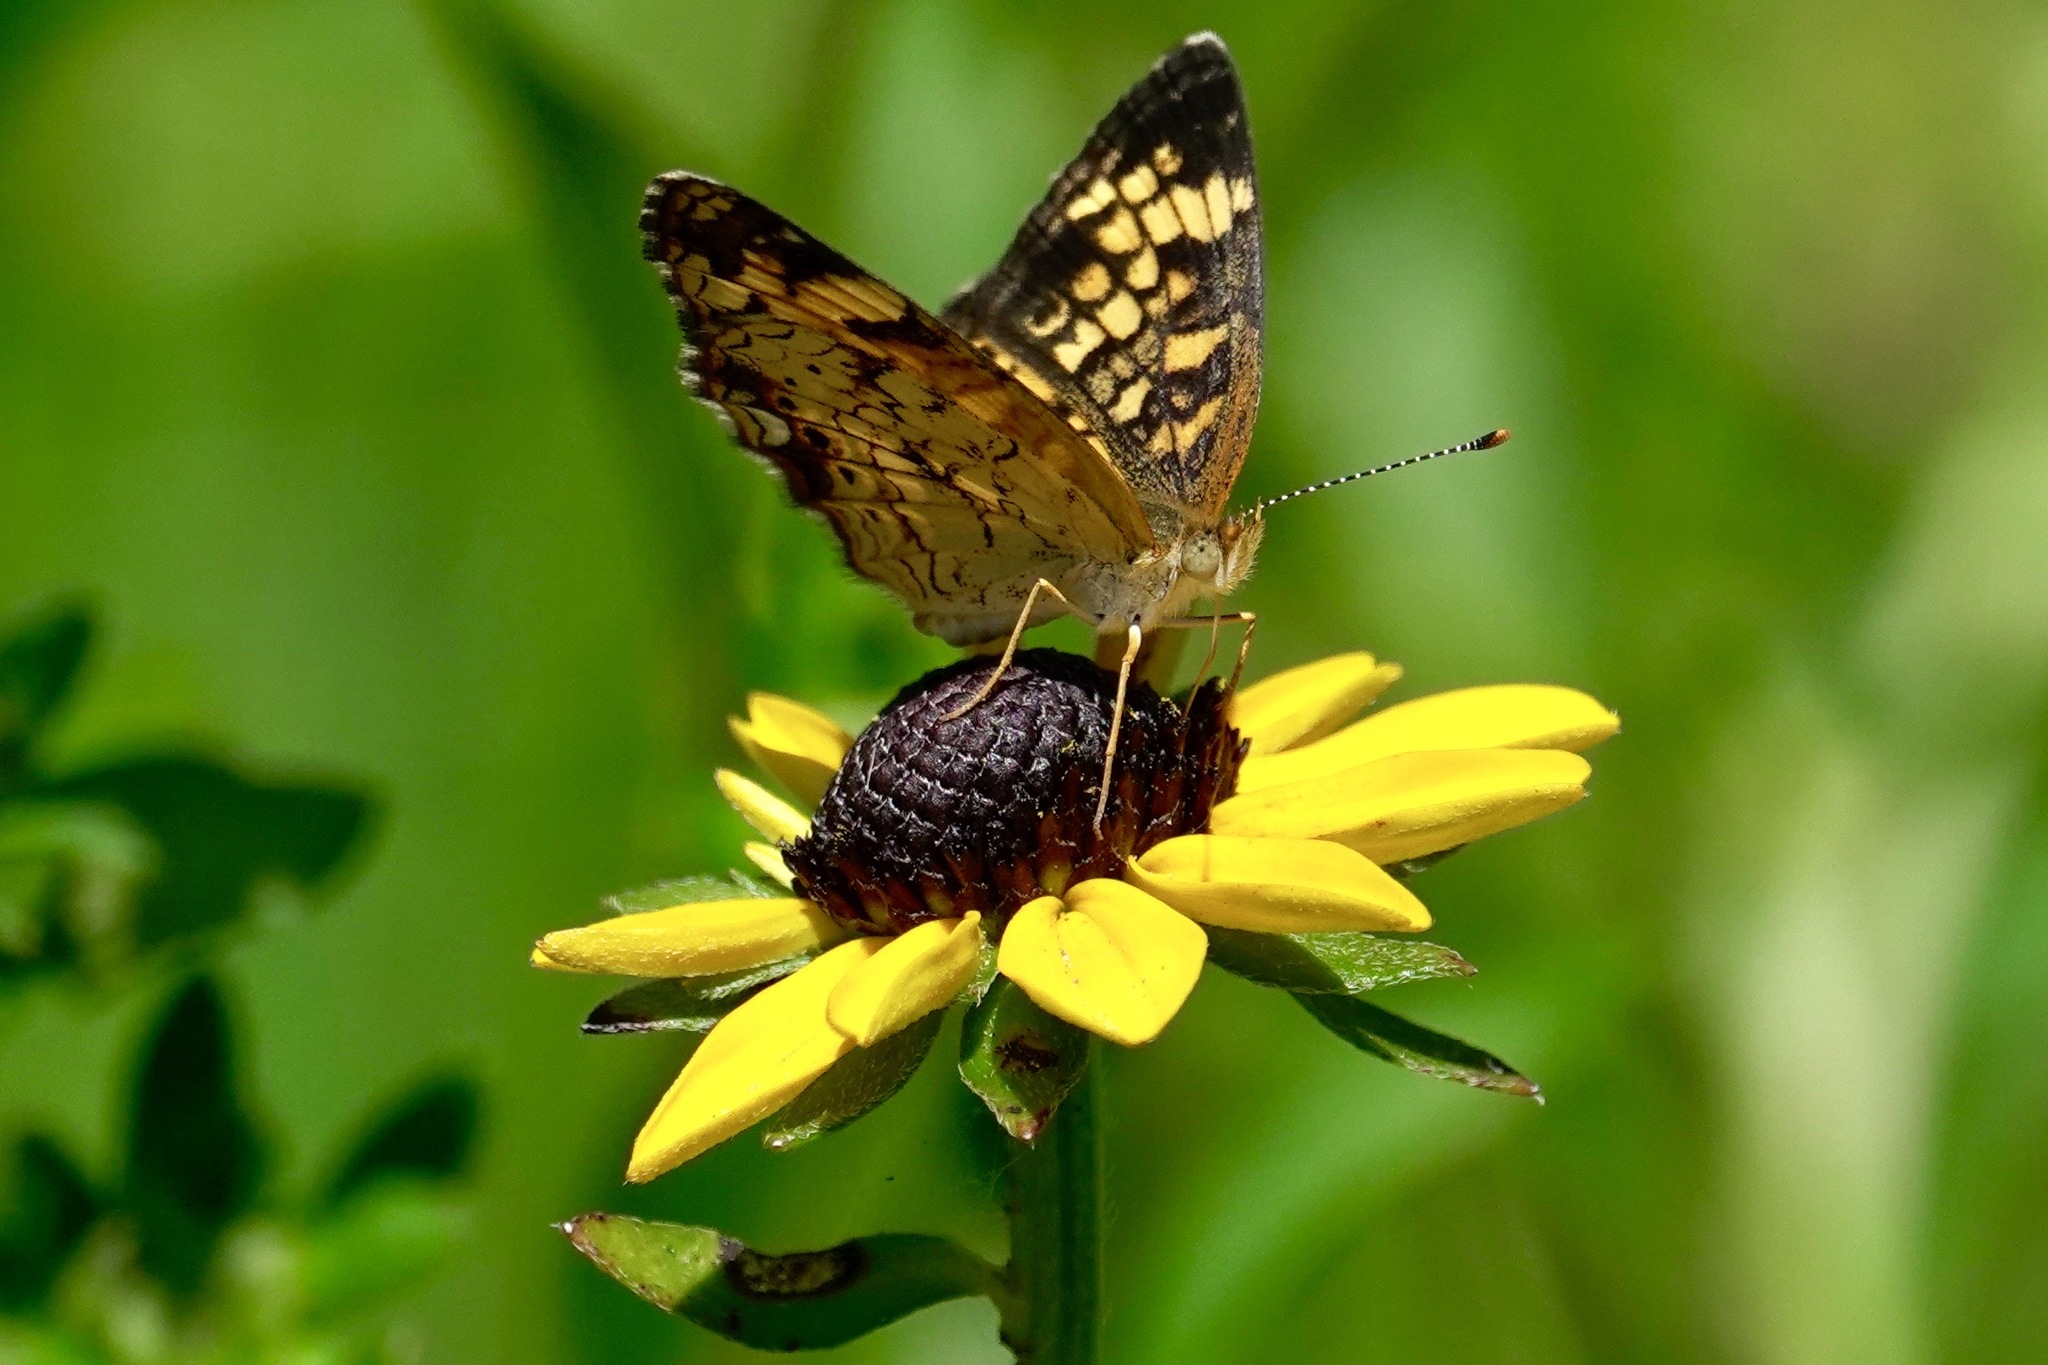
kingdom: Animalia
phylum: Arthropoda
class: Insecta
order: Lepidoptera
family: Nymphalidae
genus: Phyciodes
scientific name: Phyciodes tharos
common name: Pearl crescent
